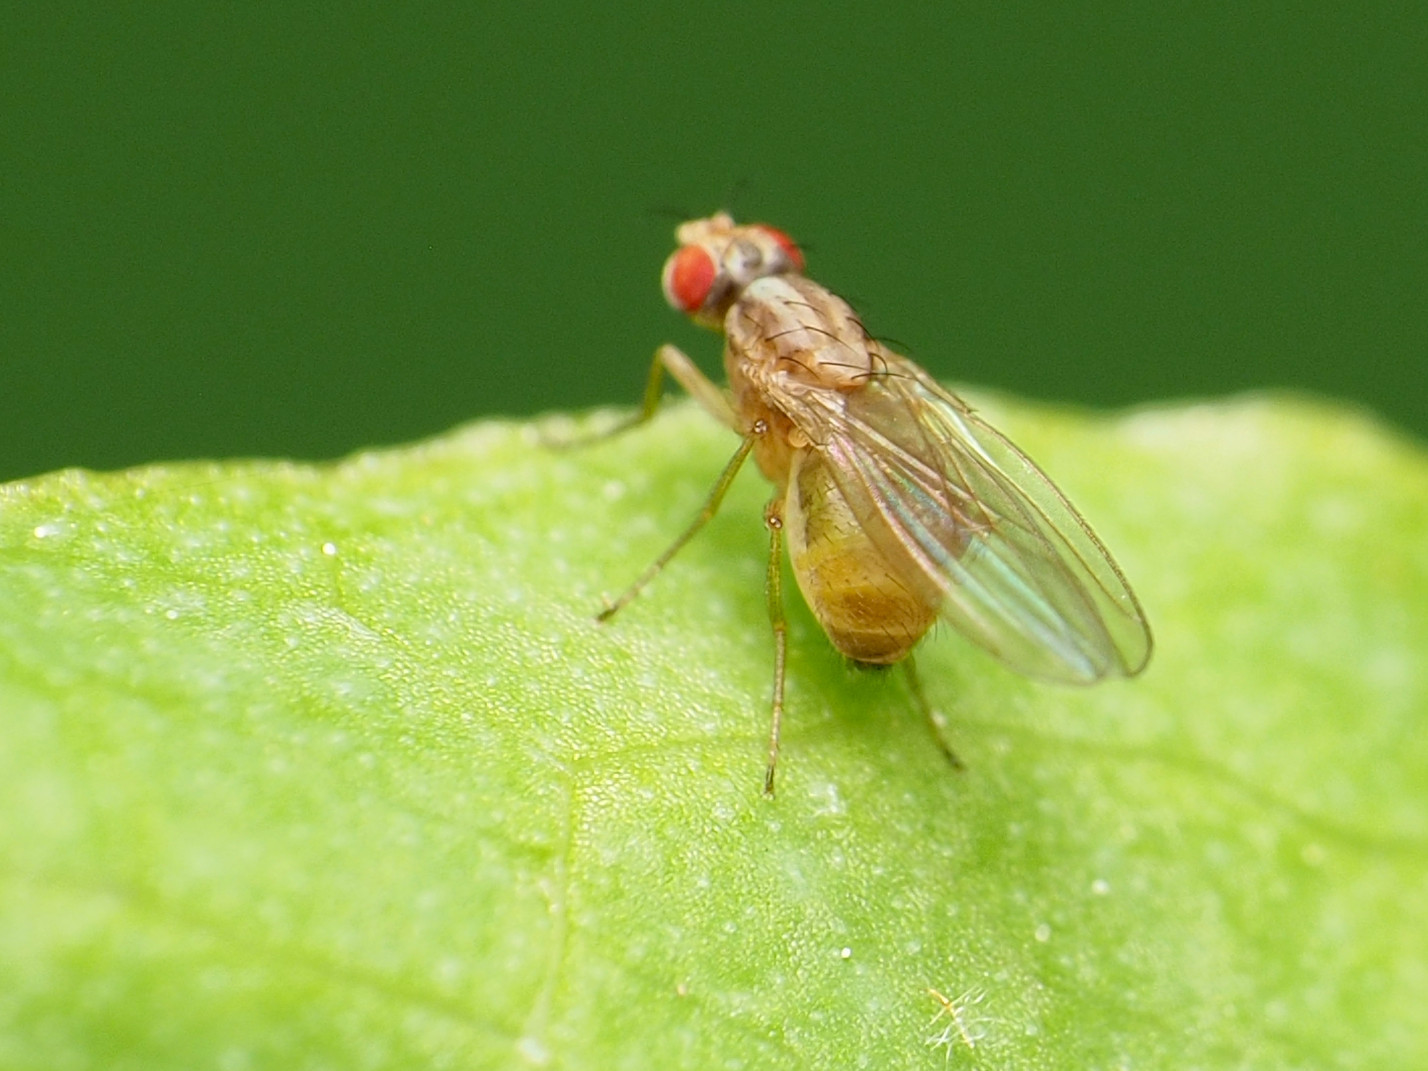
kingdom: Animalia
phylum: Arthropoda
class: Insecta
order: Diptera
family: Drosophilidae
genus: Scaptomyza
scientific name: Scaptomyza pallida
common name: Pomace fly
